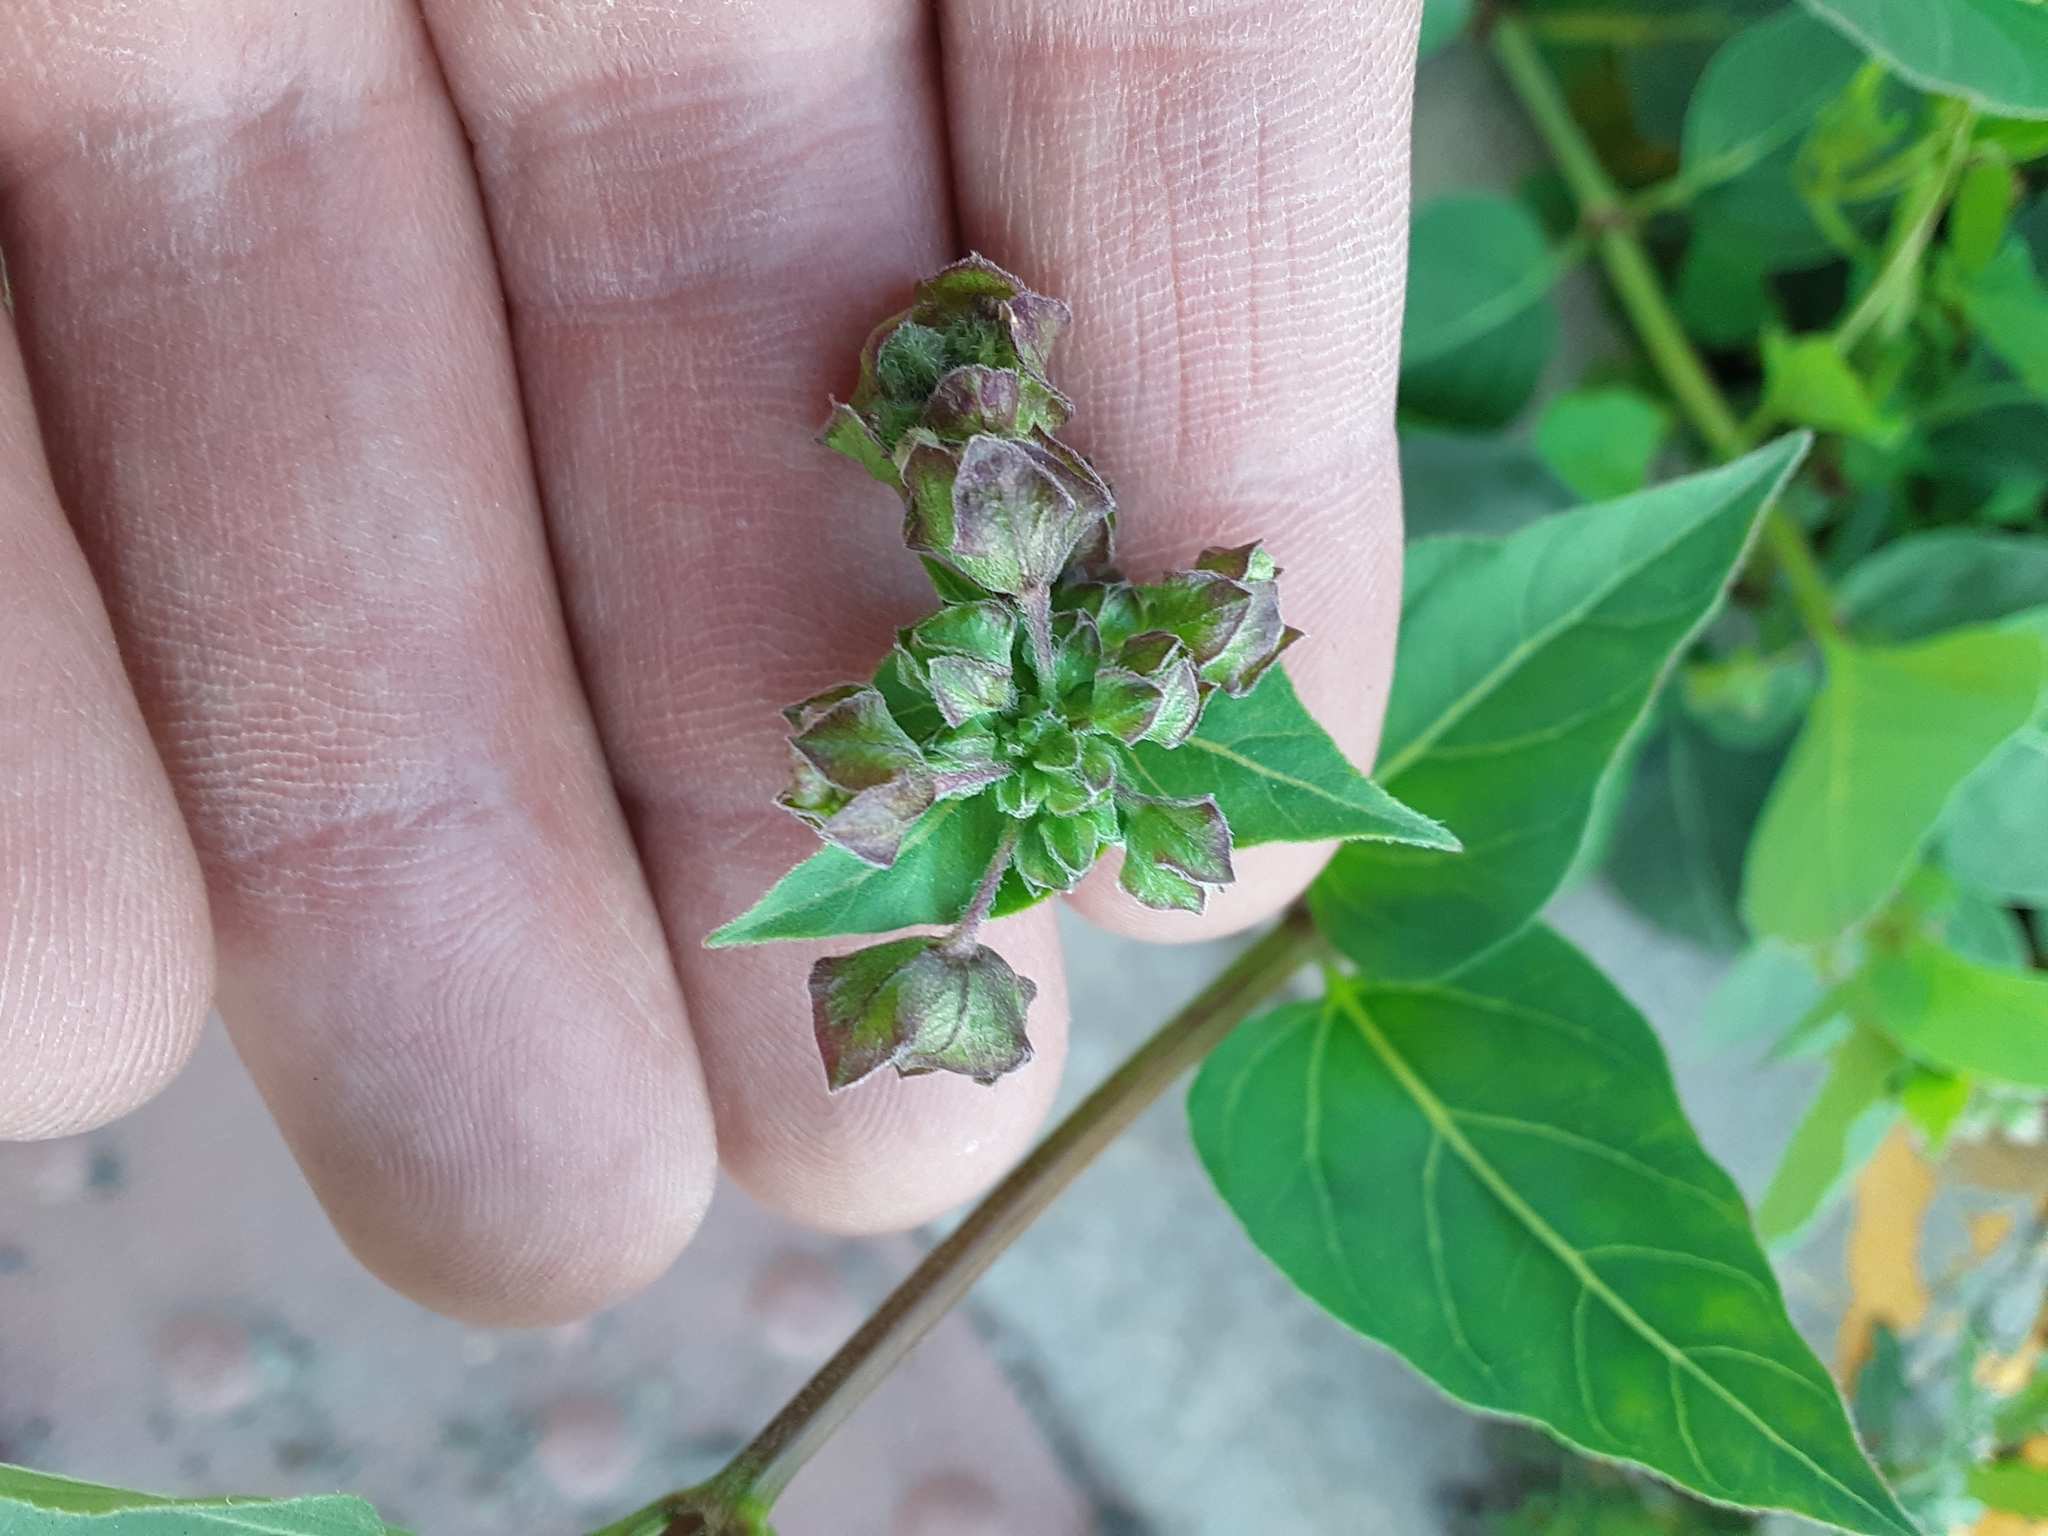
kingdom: Plantae
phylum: Tracheophyta
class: Magnoliopsida
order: Caryophyllales
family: Nyctaginaceae
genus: Mirabilis
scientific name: Mirabilis nyctaginea
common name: Umbrella wort
